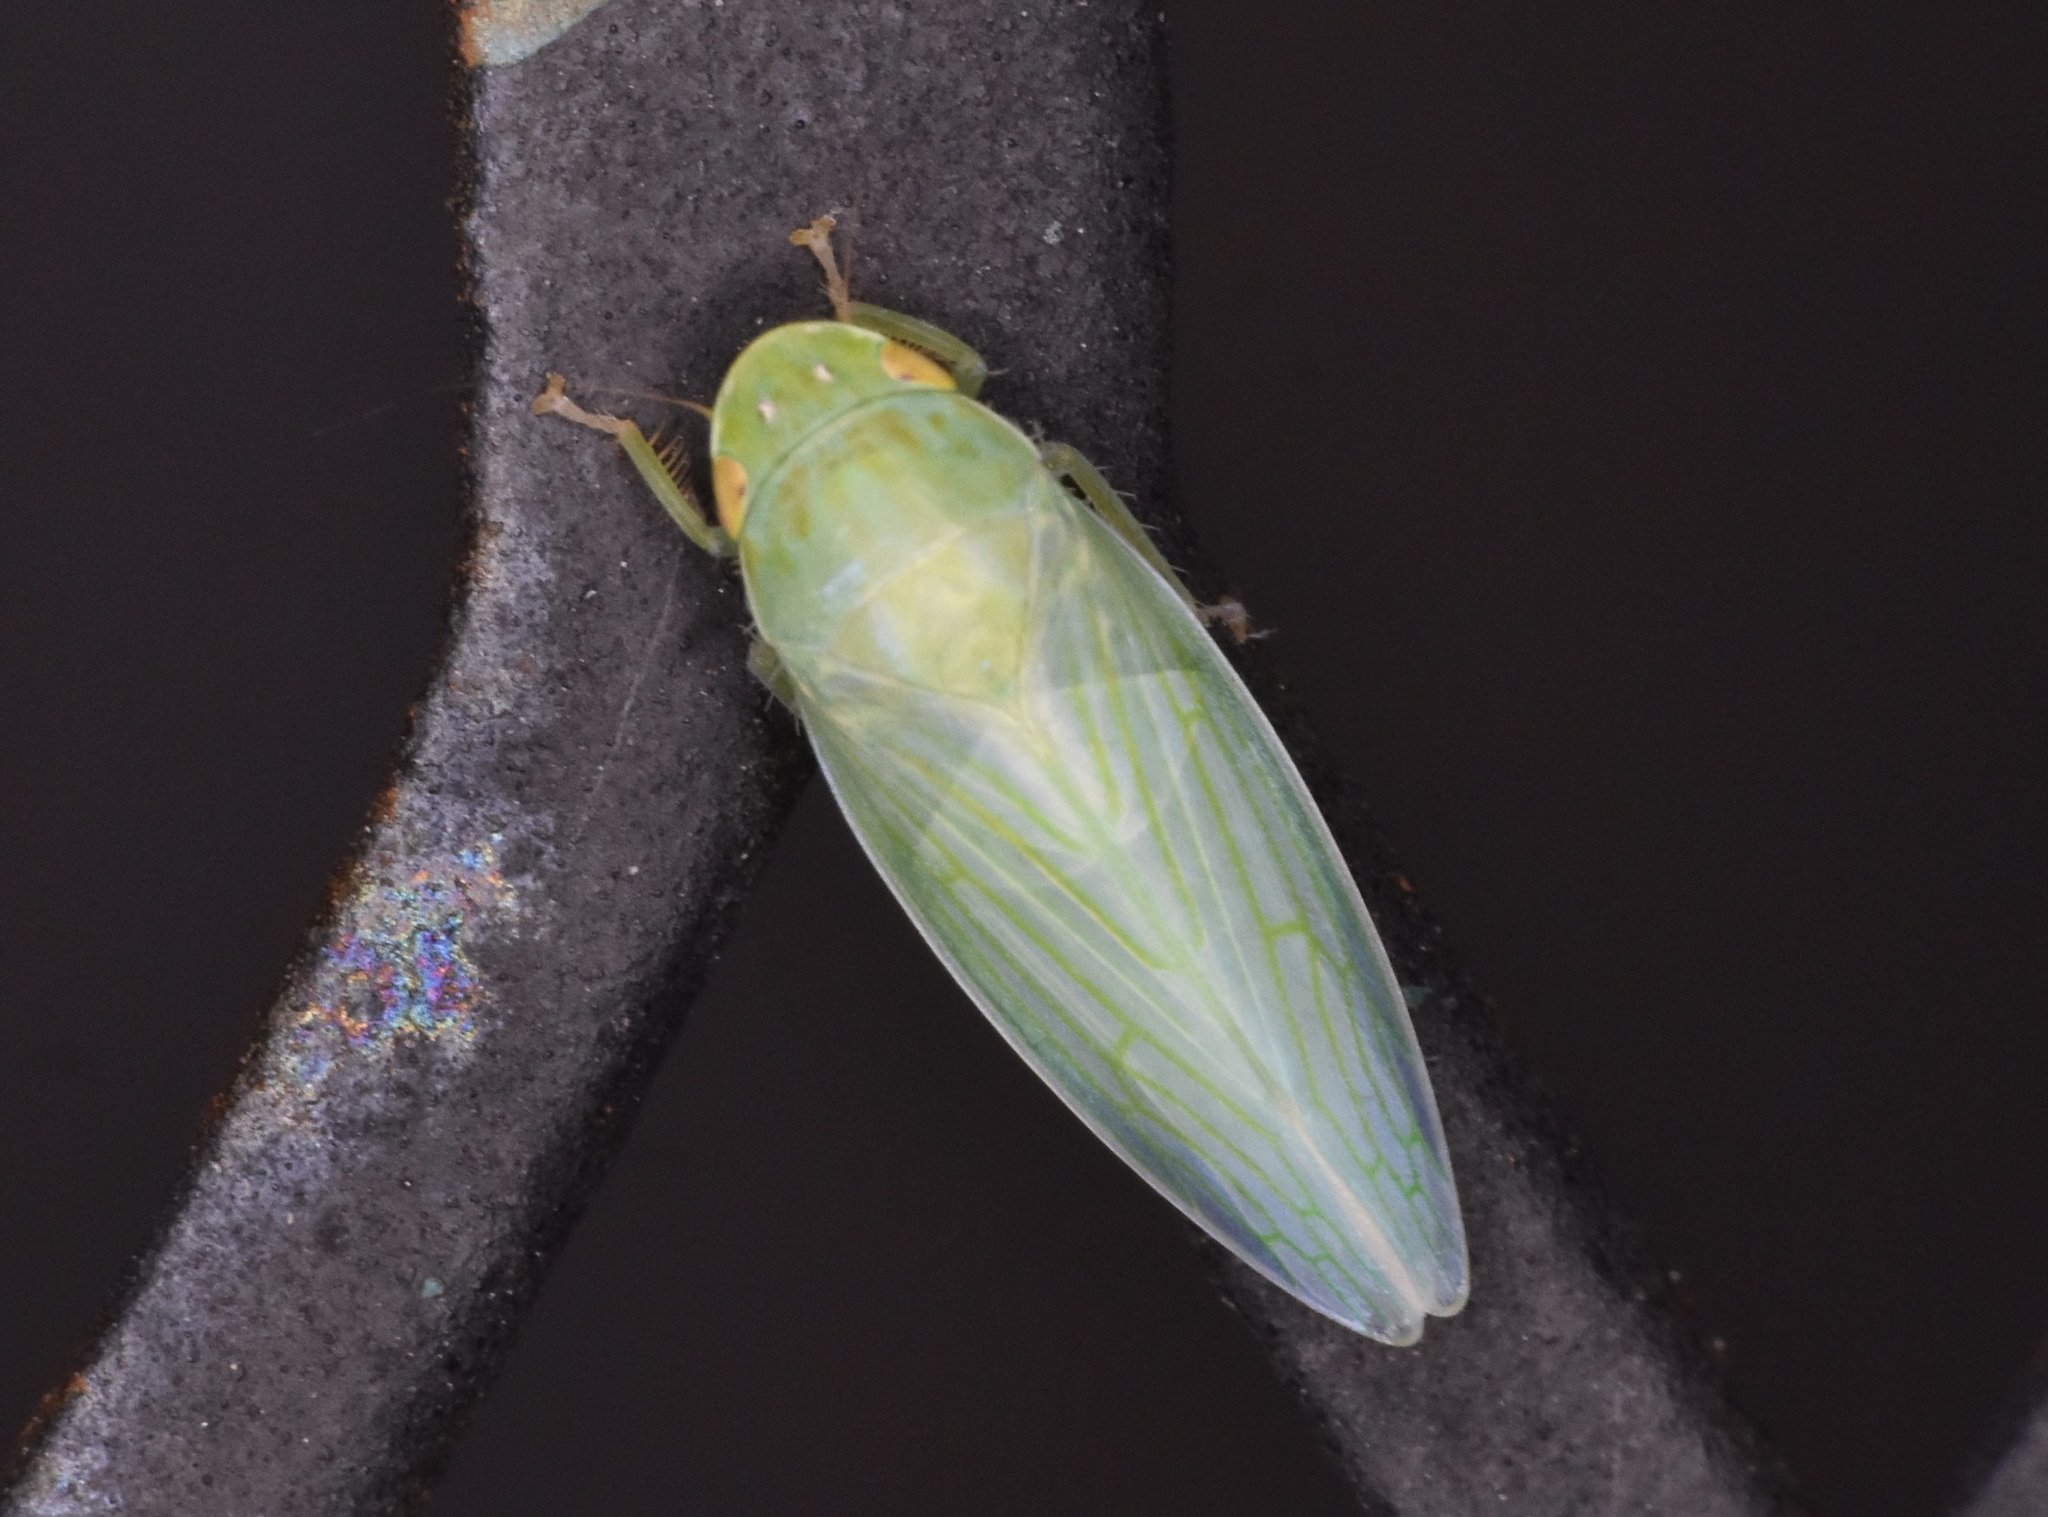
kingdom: Animalia
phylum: Arthropoda
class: Insecta
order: Hemiptera
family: Cicadellidae
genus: Gyponana
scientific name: Gyponana tenella
